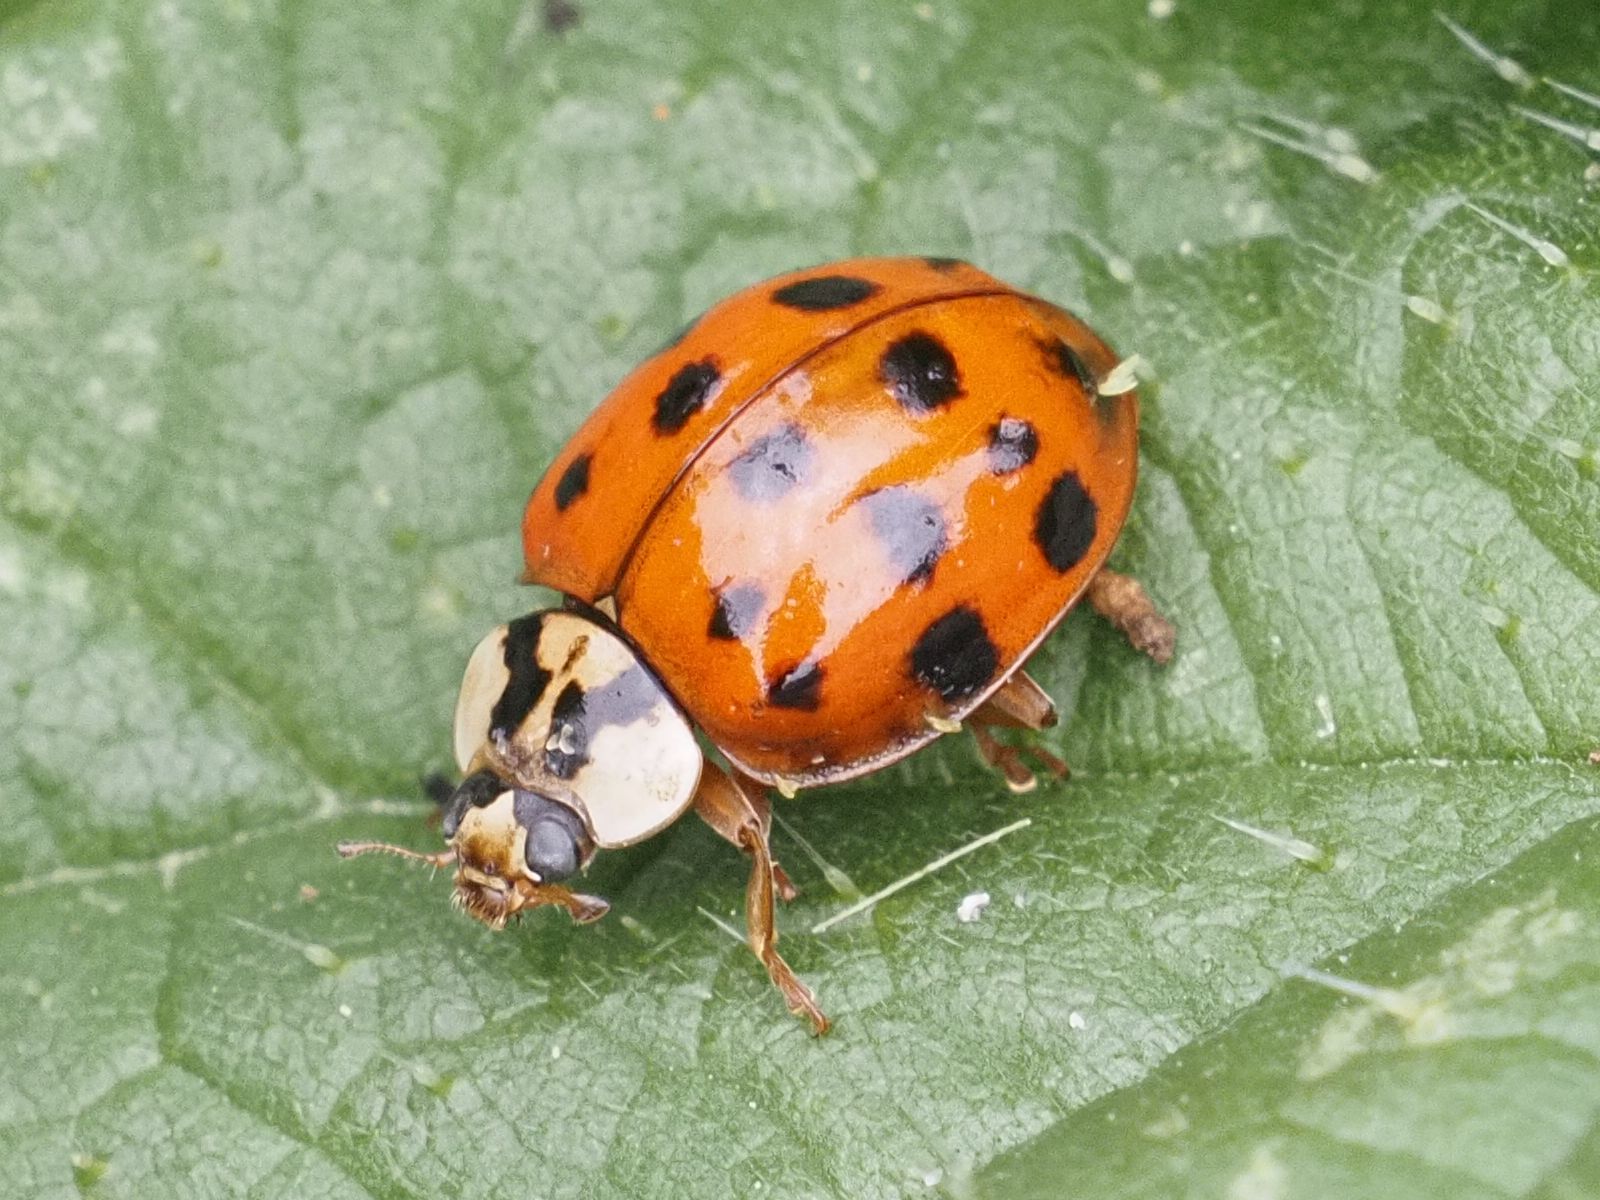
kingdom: Animalia
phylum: Arthropoda
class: Insecta
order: Coleoptera
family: Coccinellidae
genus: Harmonia
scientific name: Harmonia axyridis
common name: Harlequin ladybird
